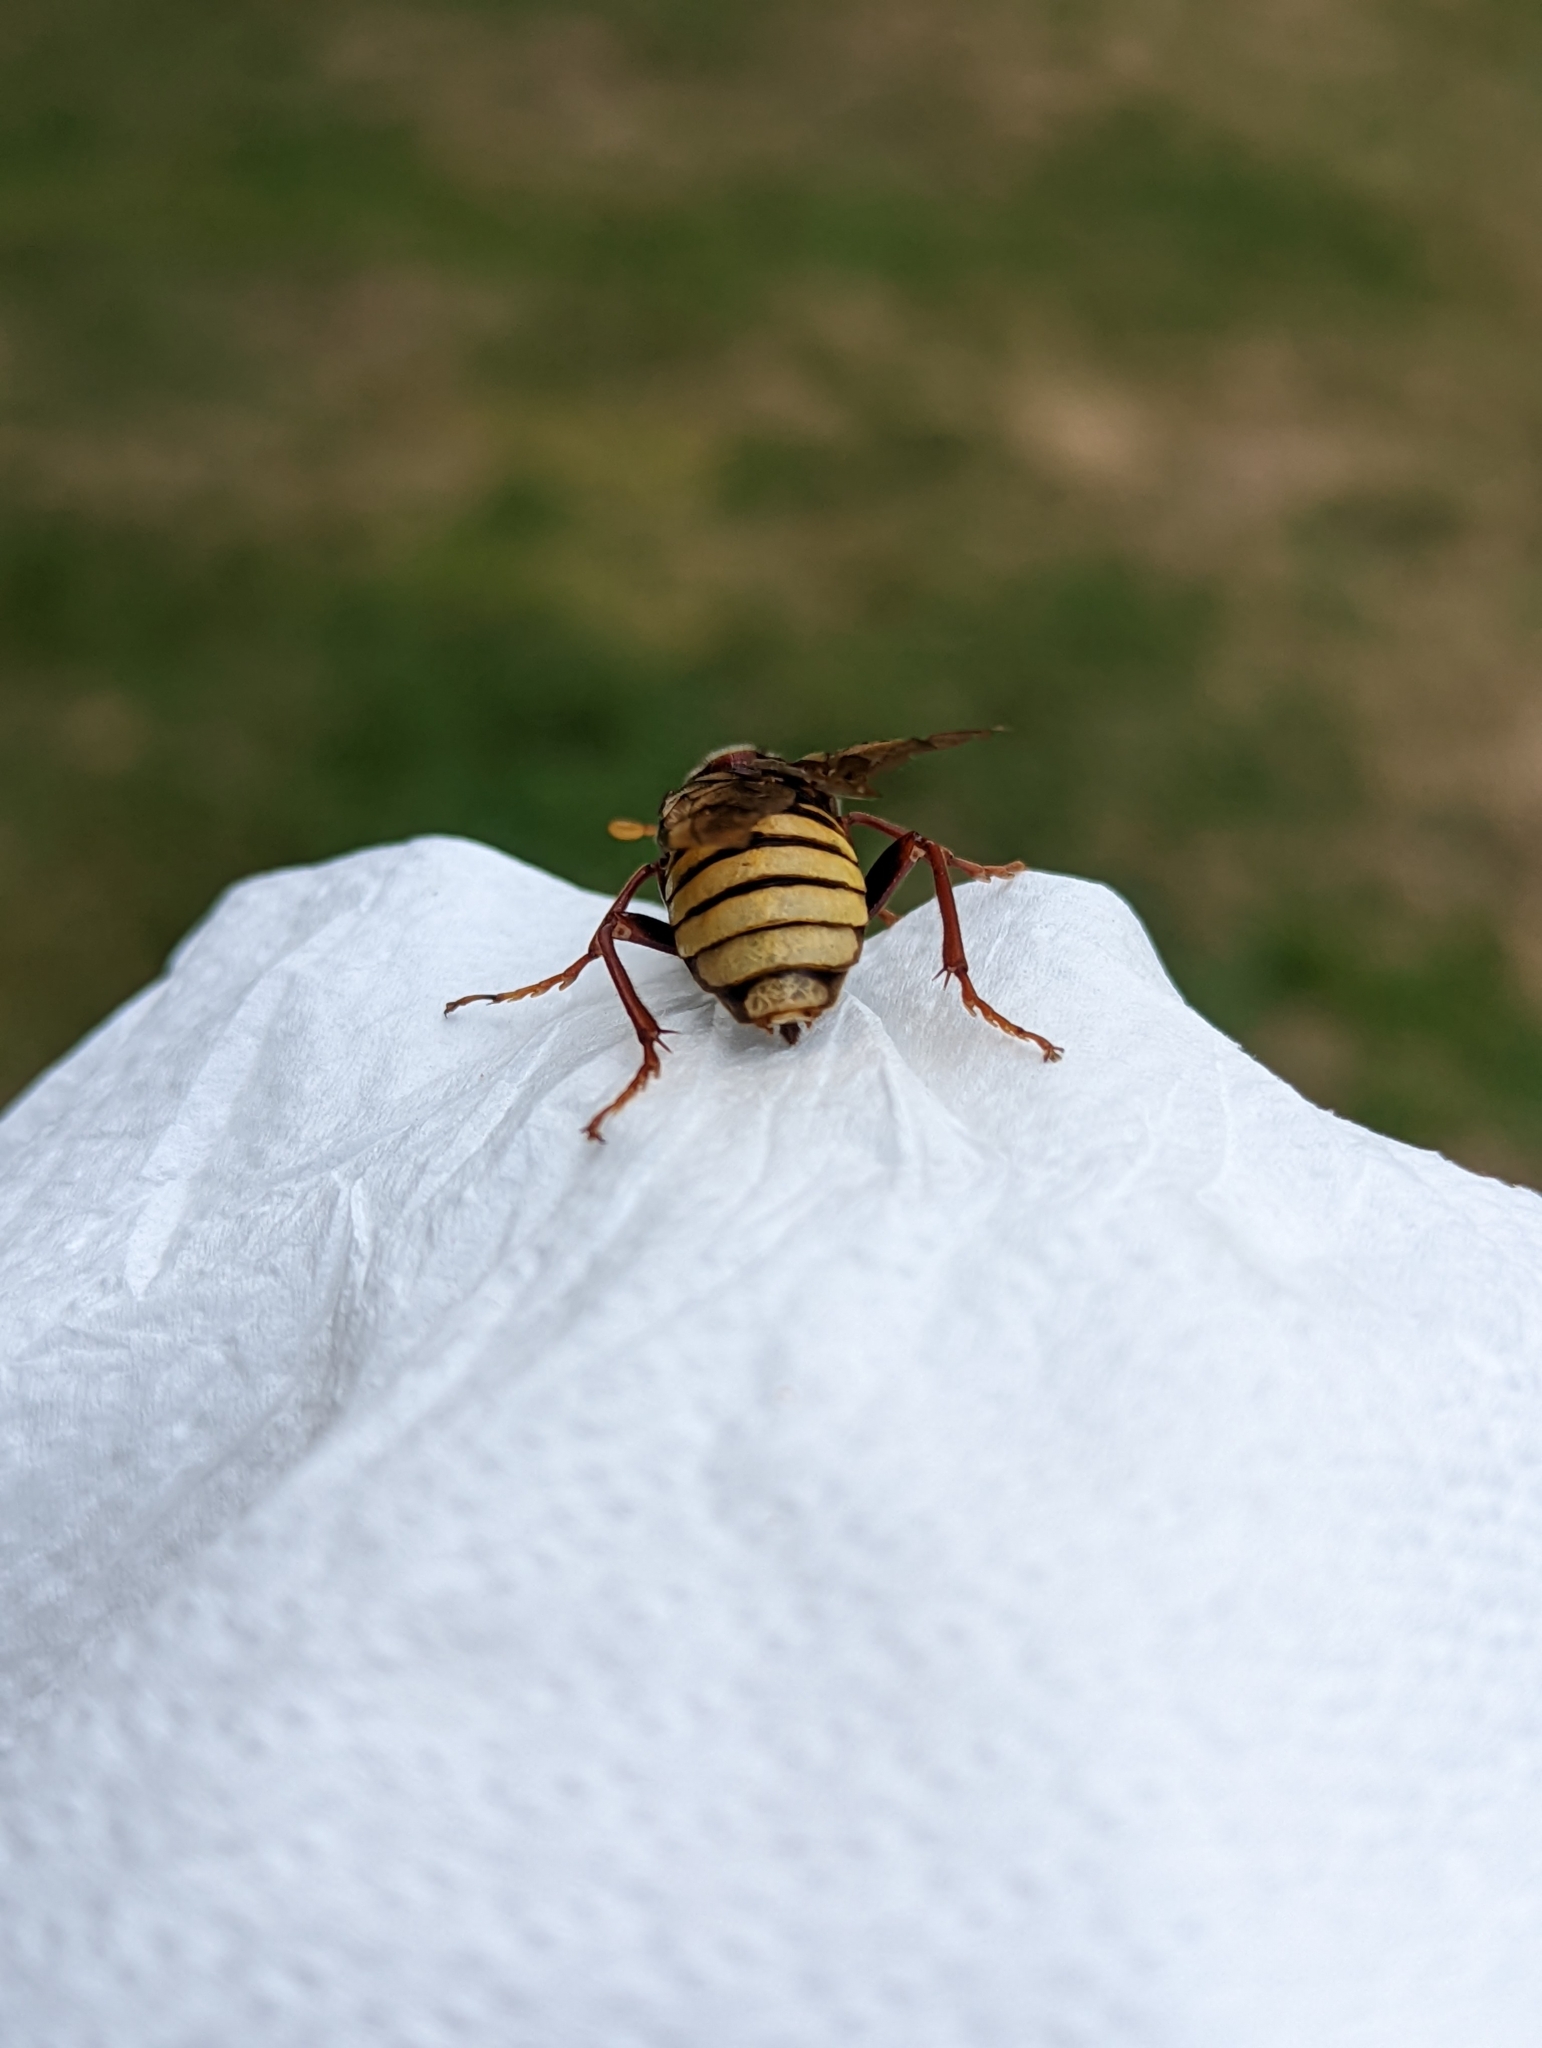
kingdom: Animalia
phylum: Arthropoda
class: Insecta
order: Hymenoptera
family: Cimbicidae
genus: Cimbex
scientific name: Cimbex connatus
